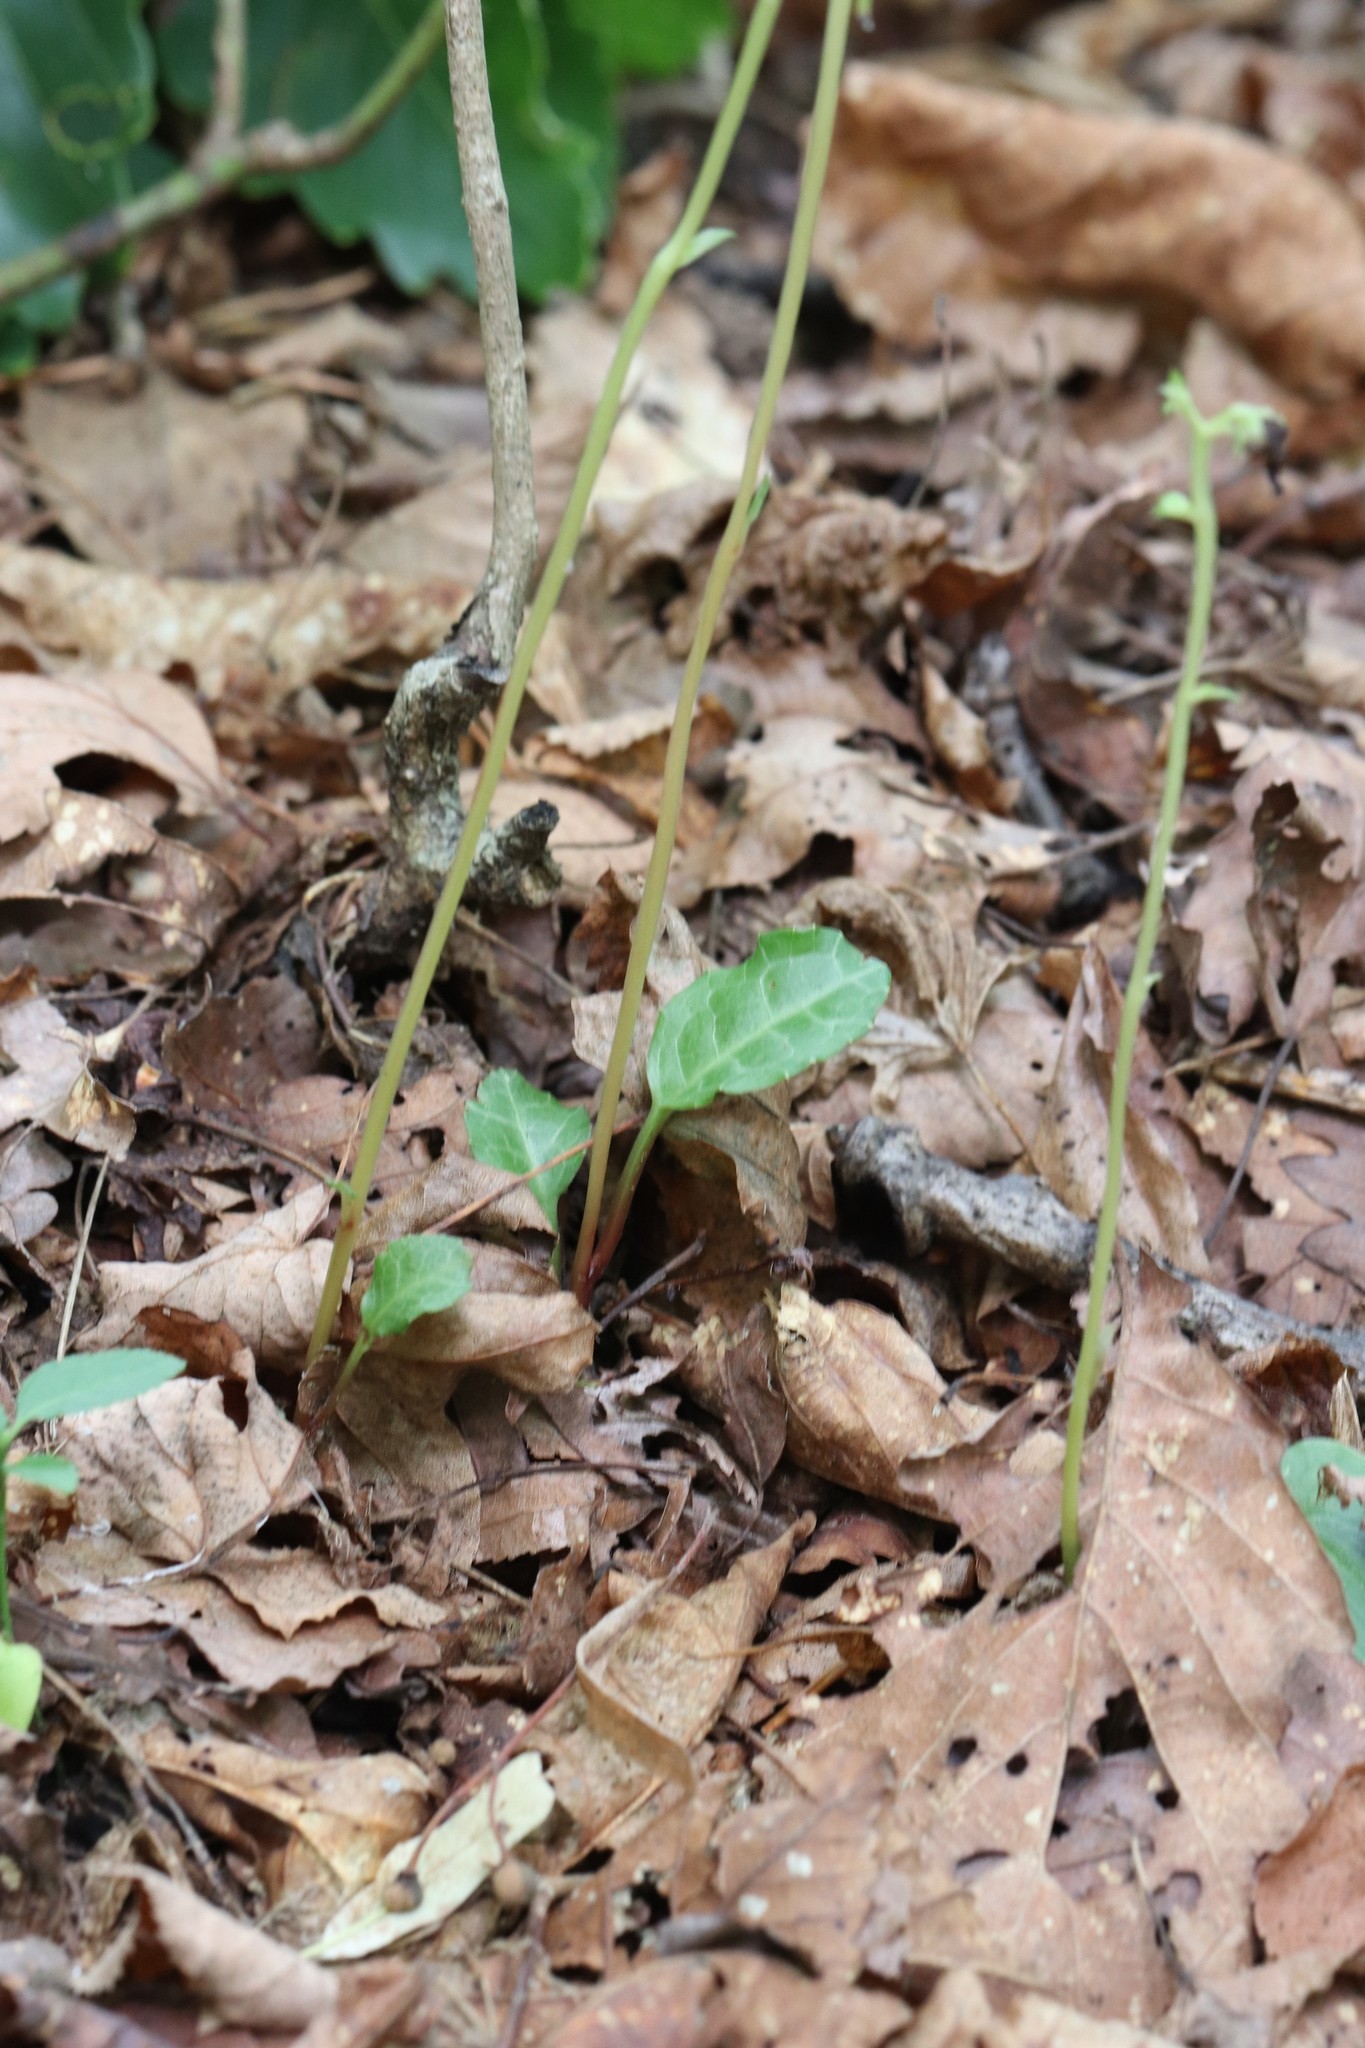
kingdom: Plantae
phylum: Tracheophyta
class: Magnoliopsida
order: Ericales
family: Ericaceae
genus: Pyrola
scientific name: Pyrola japonica
